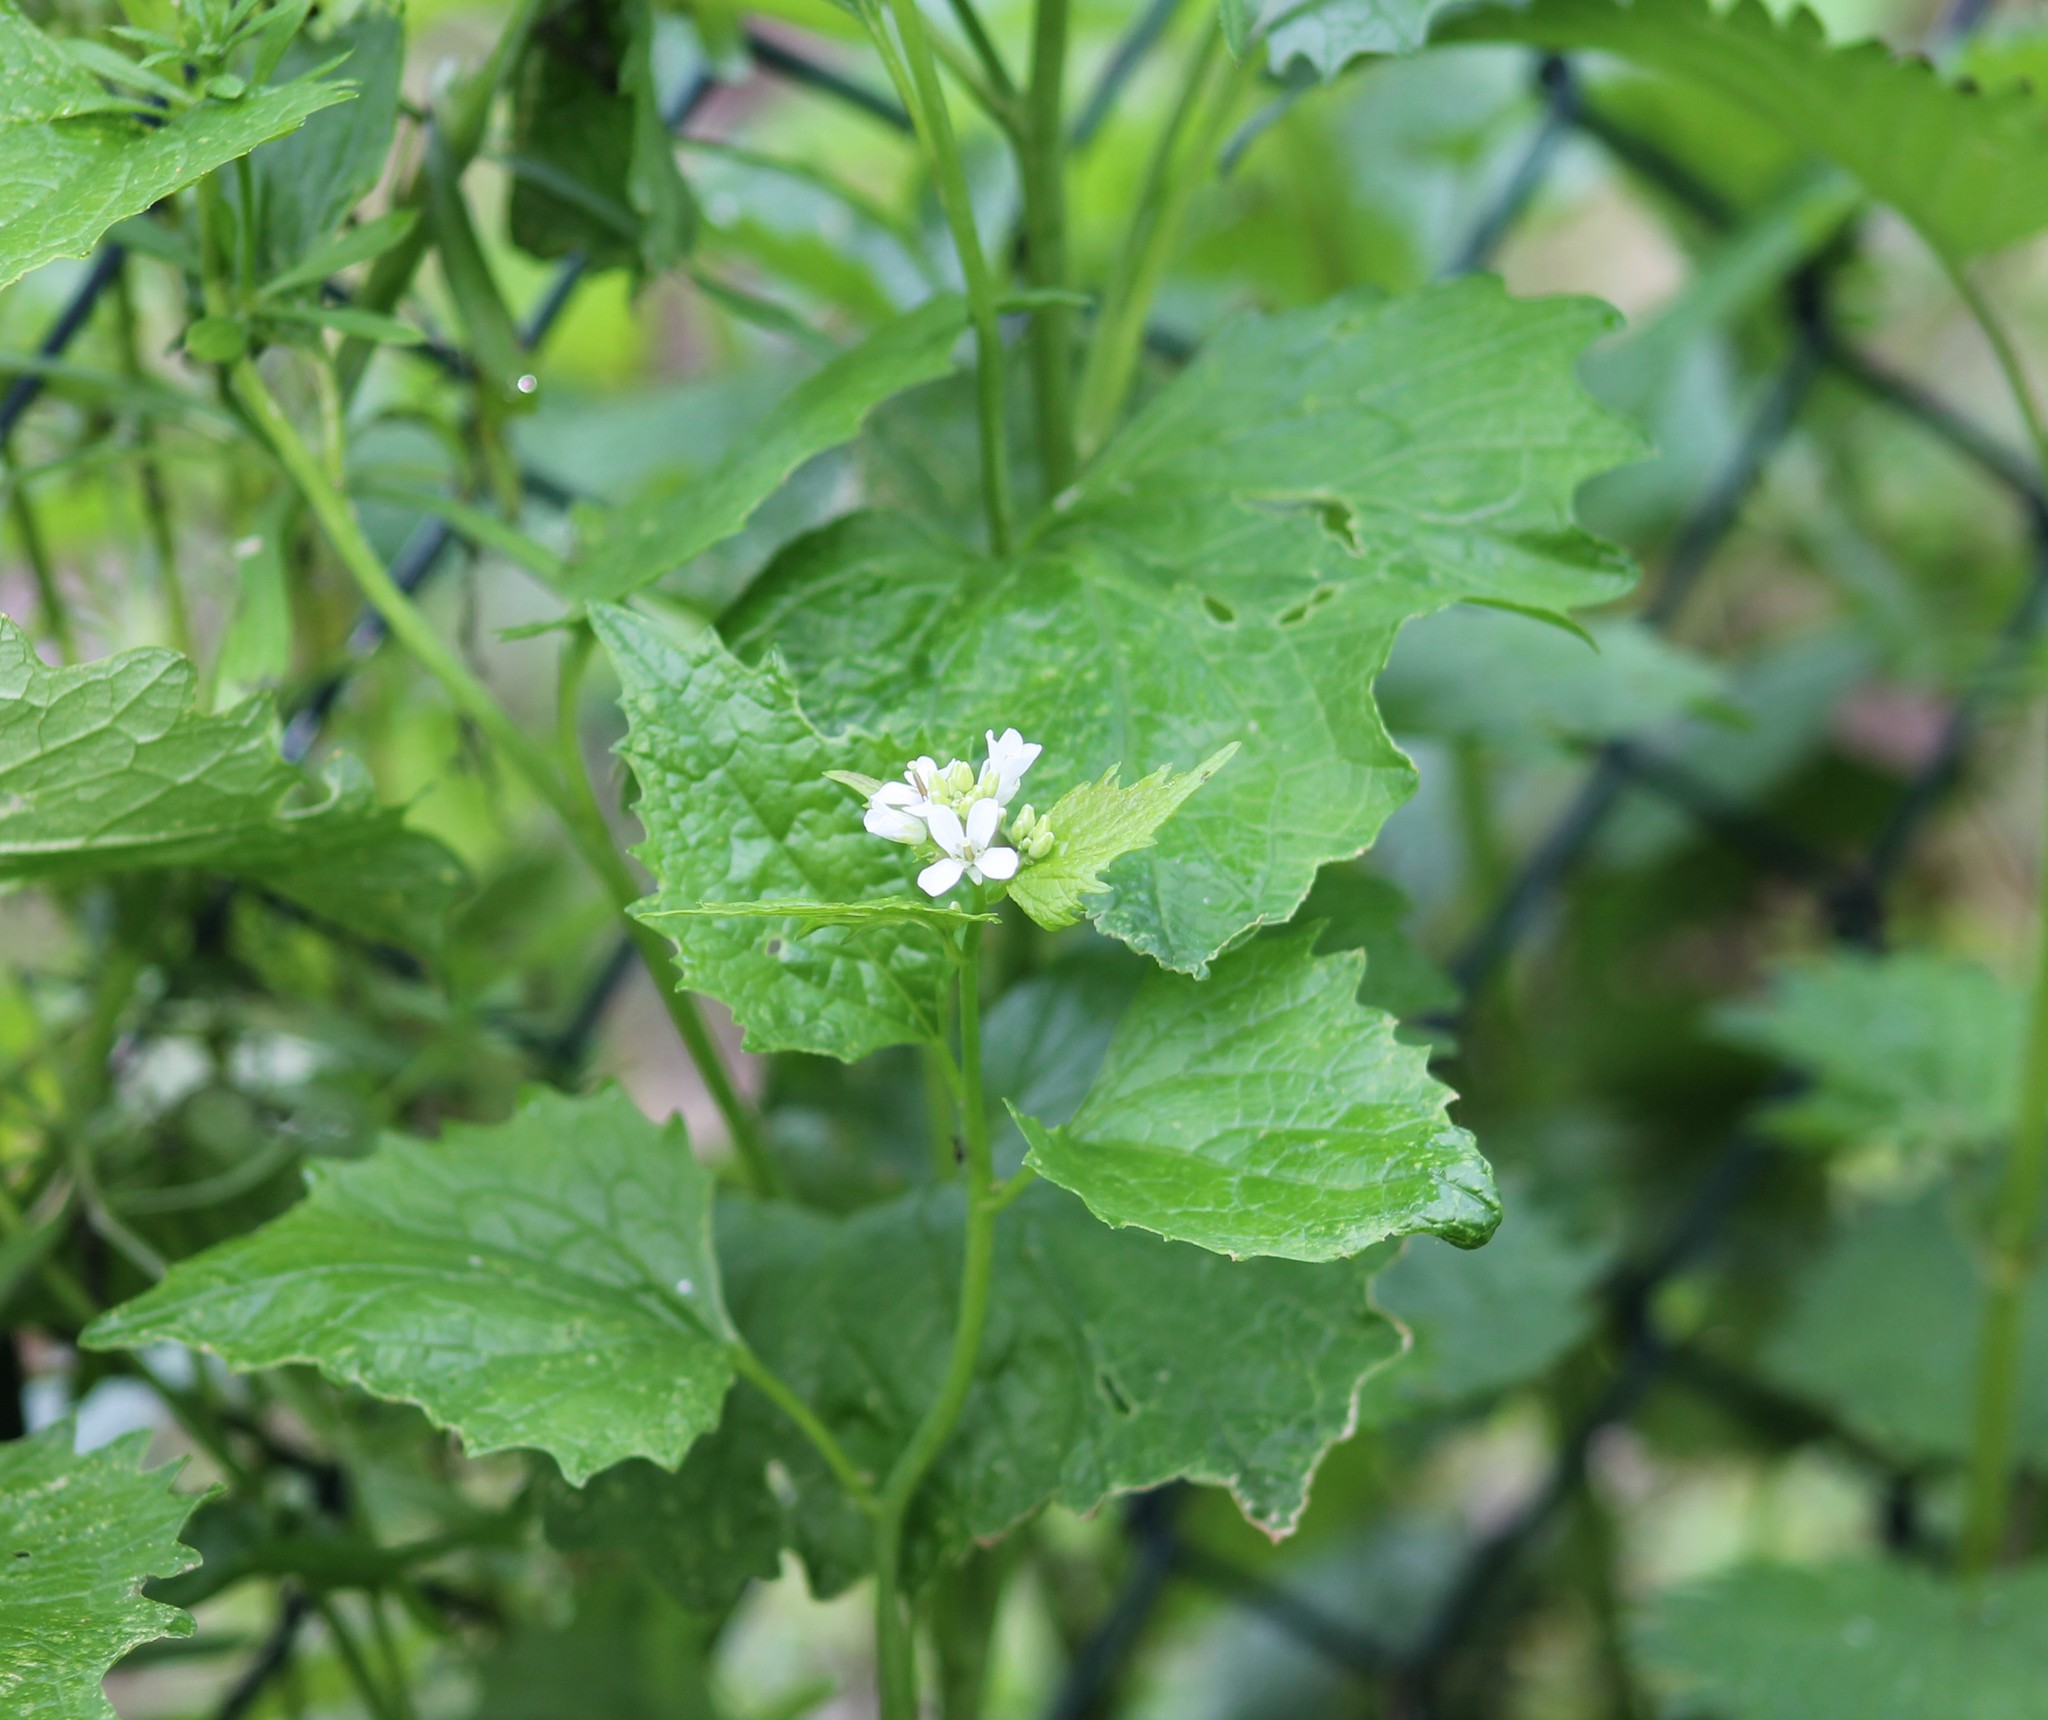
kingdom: Plantae
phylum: Tracheophyta
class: Magnoliopsida
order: Brassicales
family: Brassicaceae
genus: Alliaria
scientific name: Alliaria petiolata
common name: Garlic mustard
